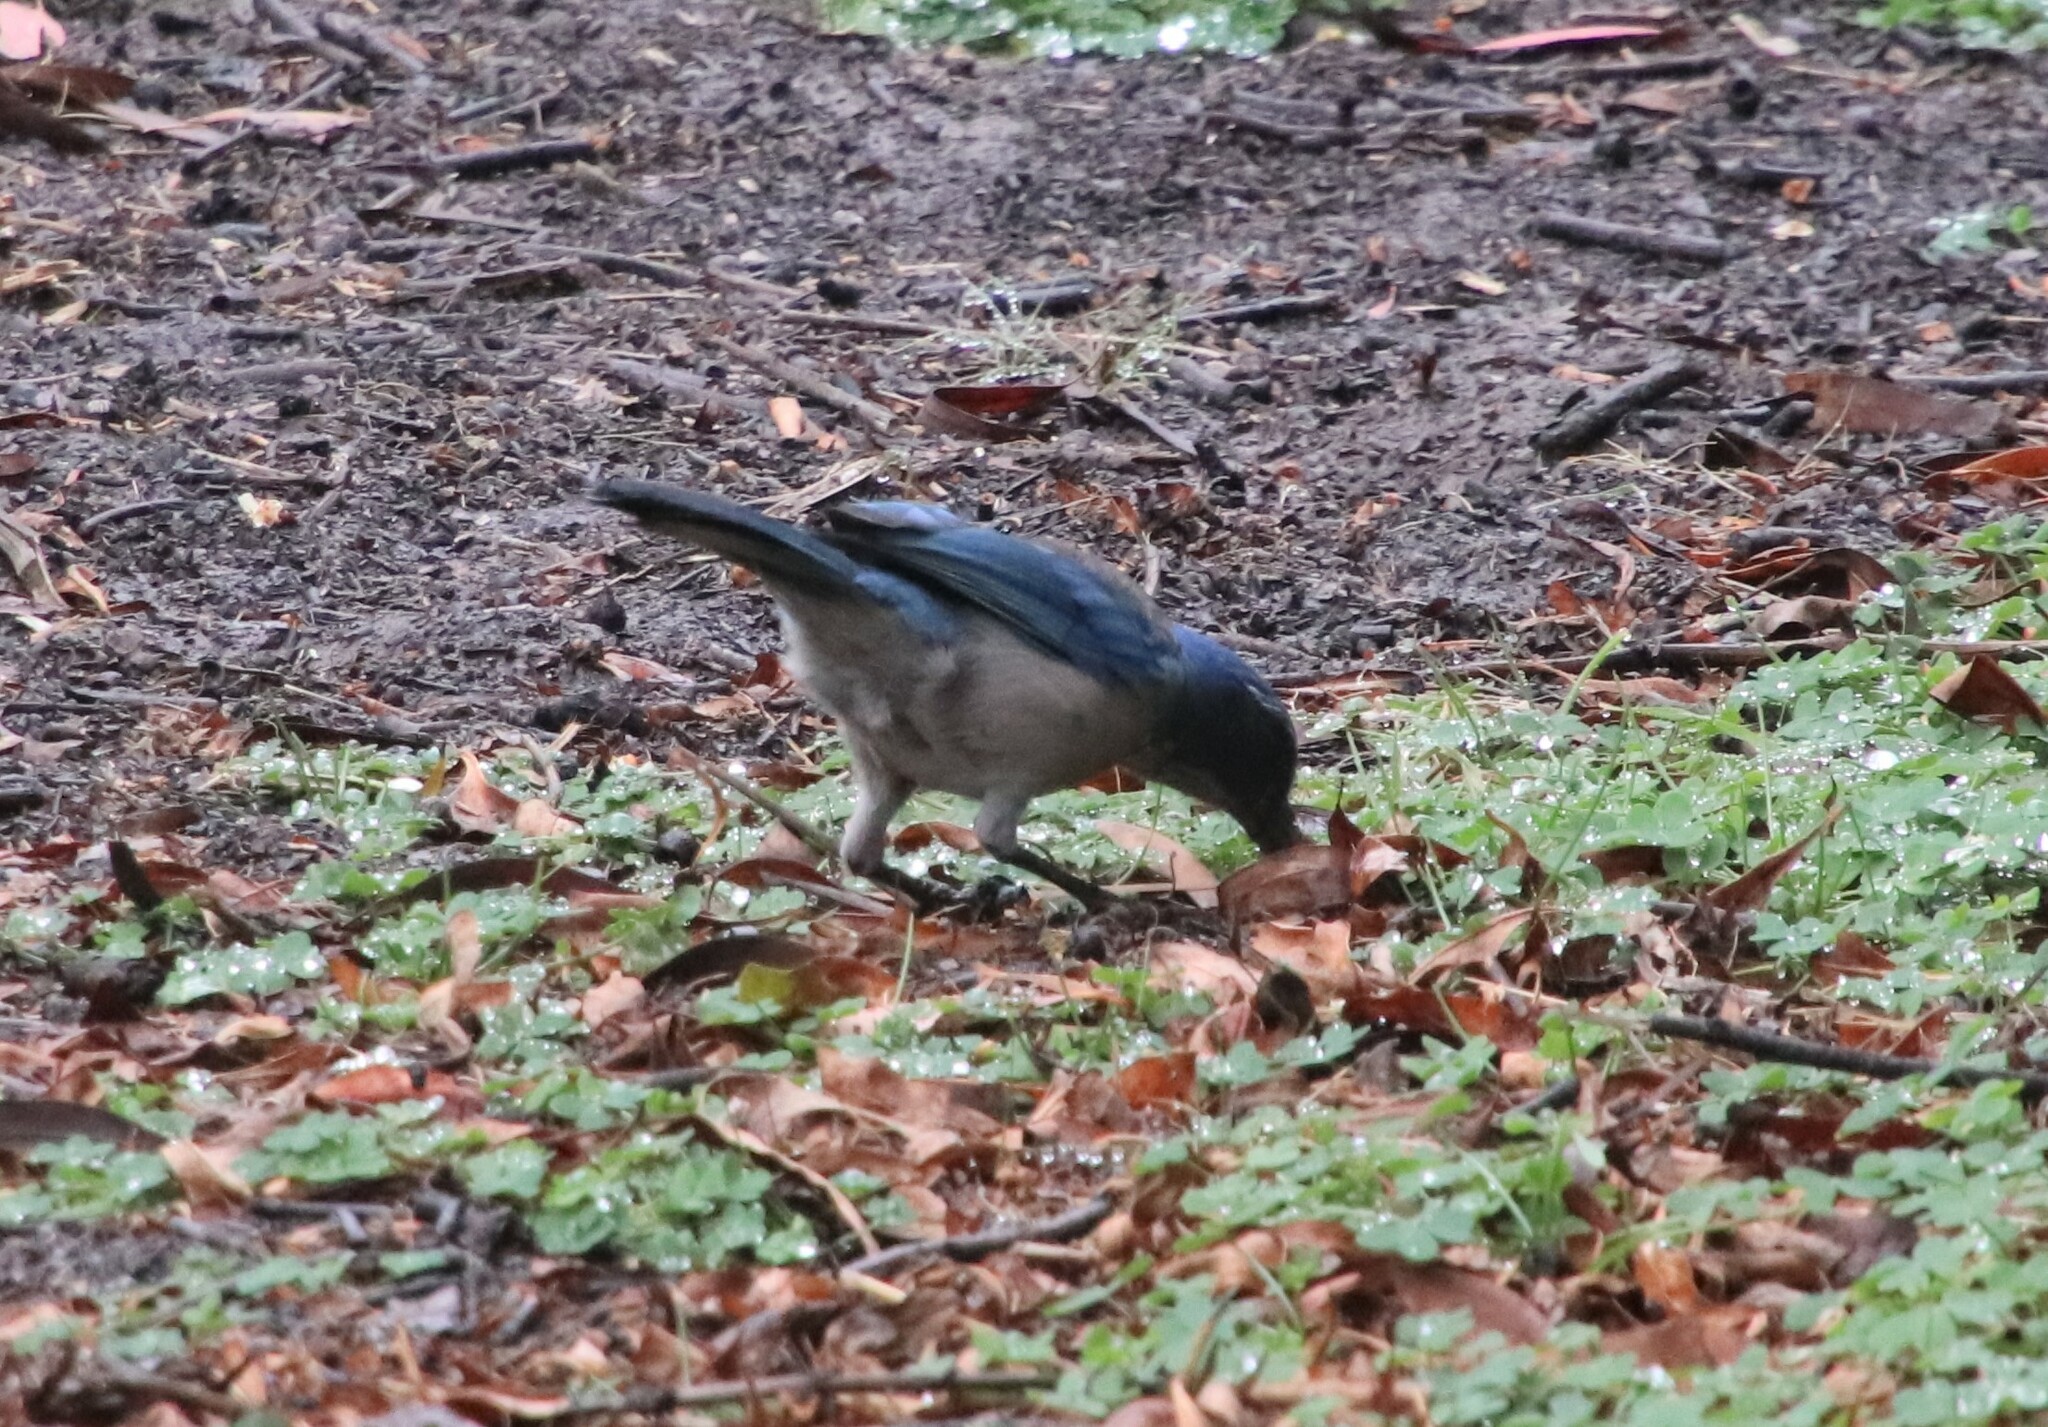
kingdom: Animalia
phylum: Chordata
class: Aves
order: Passeriformes
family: Corvidae
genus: Aphelocoma
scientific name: Aphelocoma californica
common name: California scrub-jay
